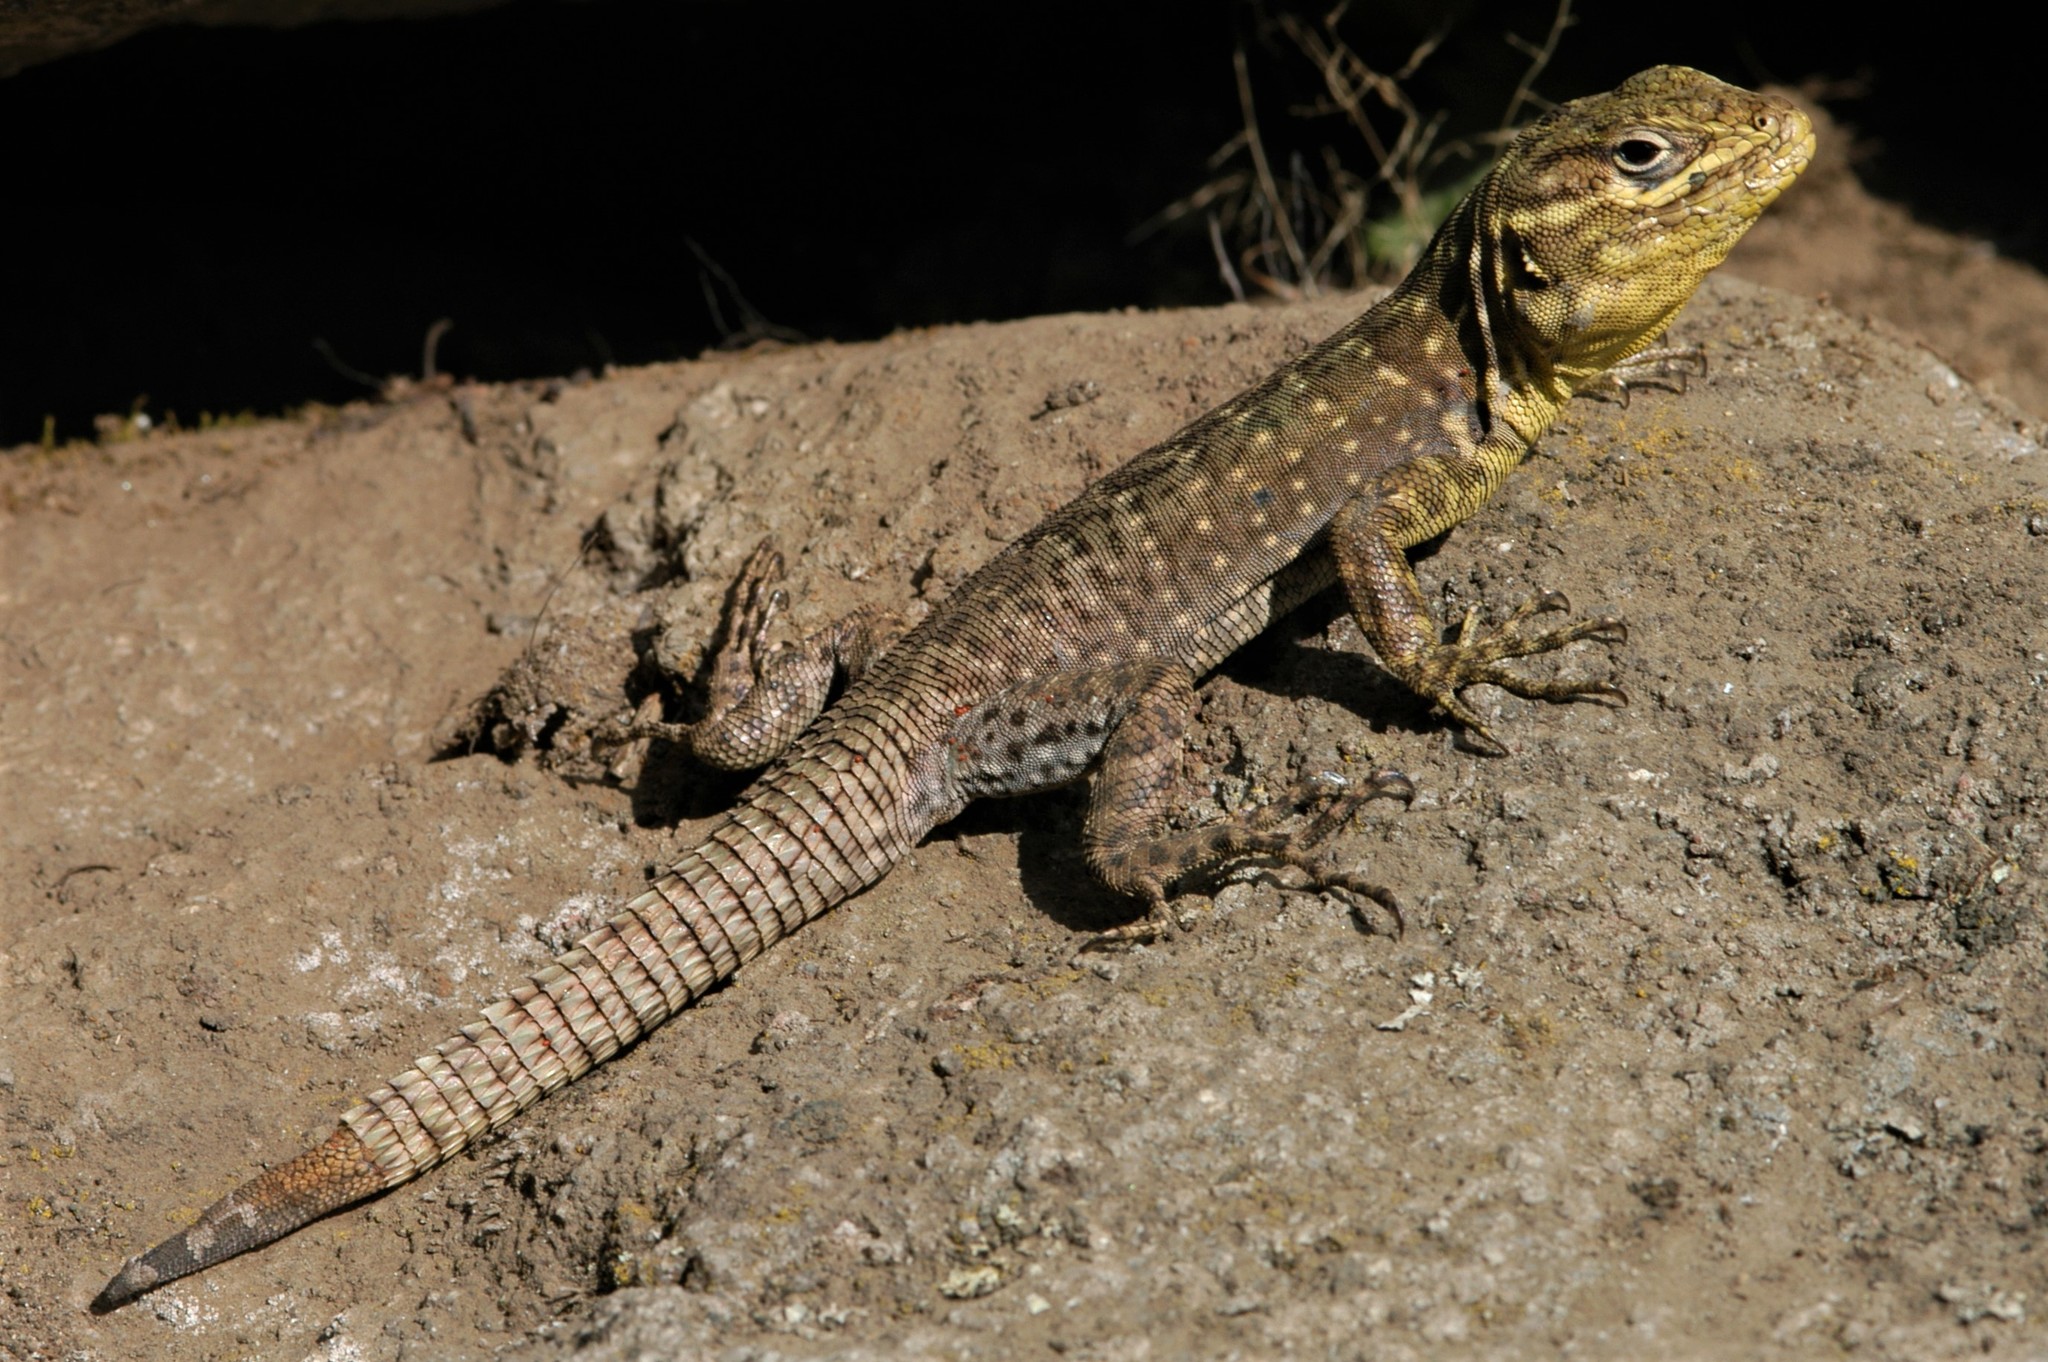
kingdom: Animalia
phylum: Chordata
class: Squamata
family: Tropiduridae
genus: Stenocercus
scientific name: Stenocercus crassicaudatus
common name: Spiny whorltail iguana
